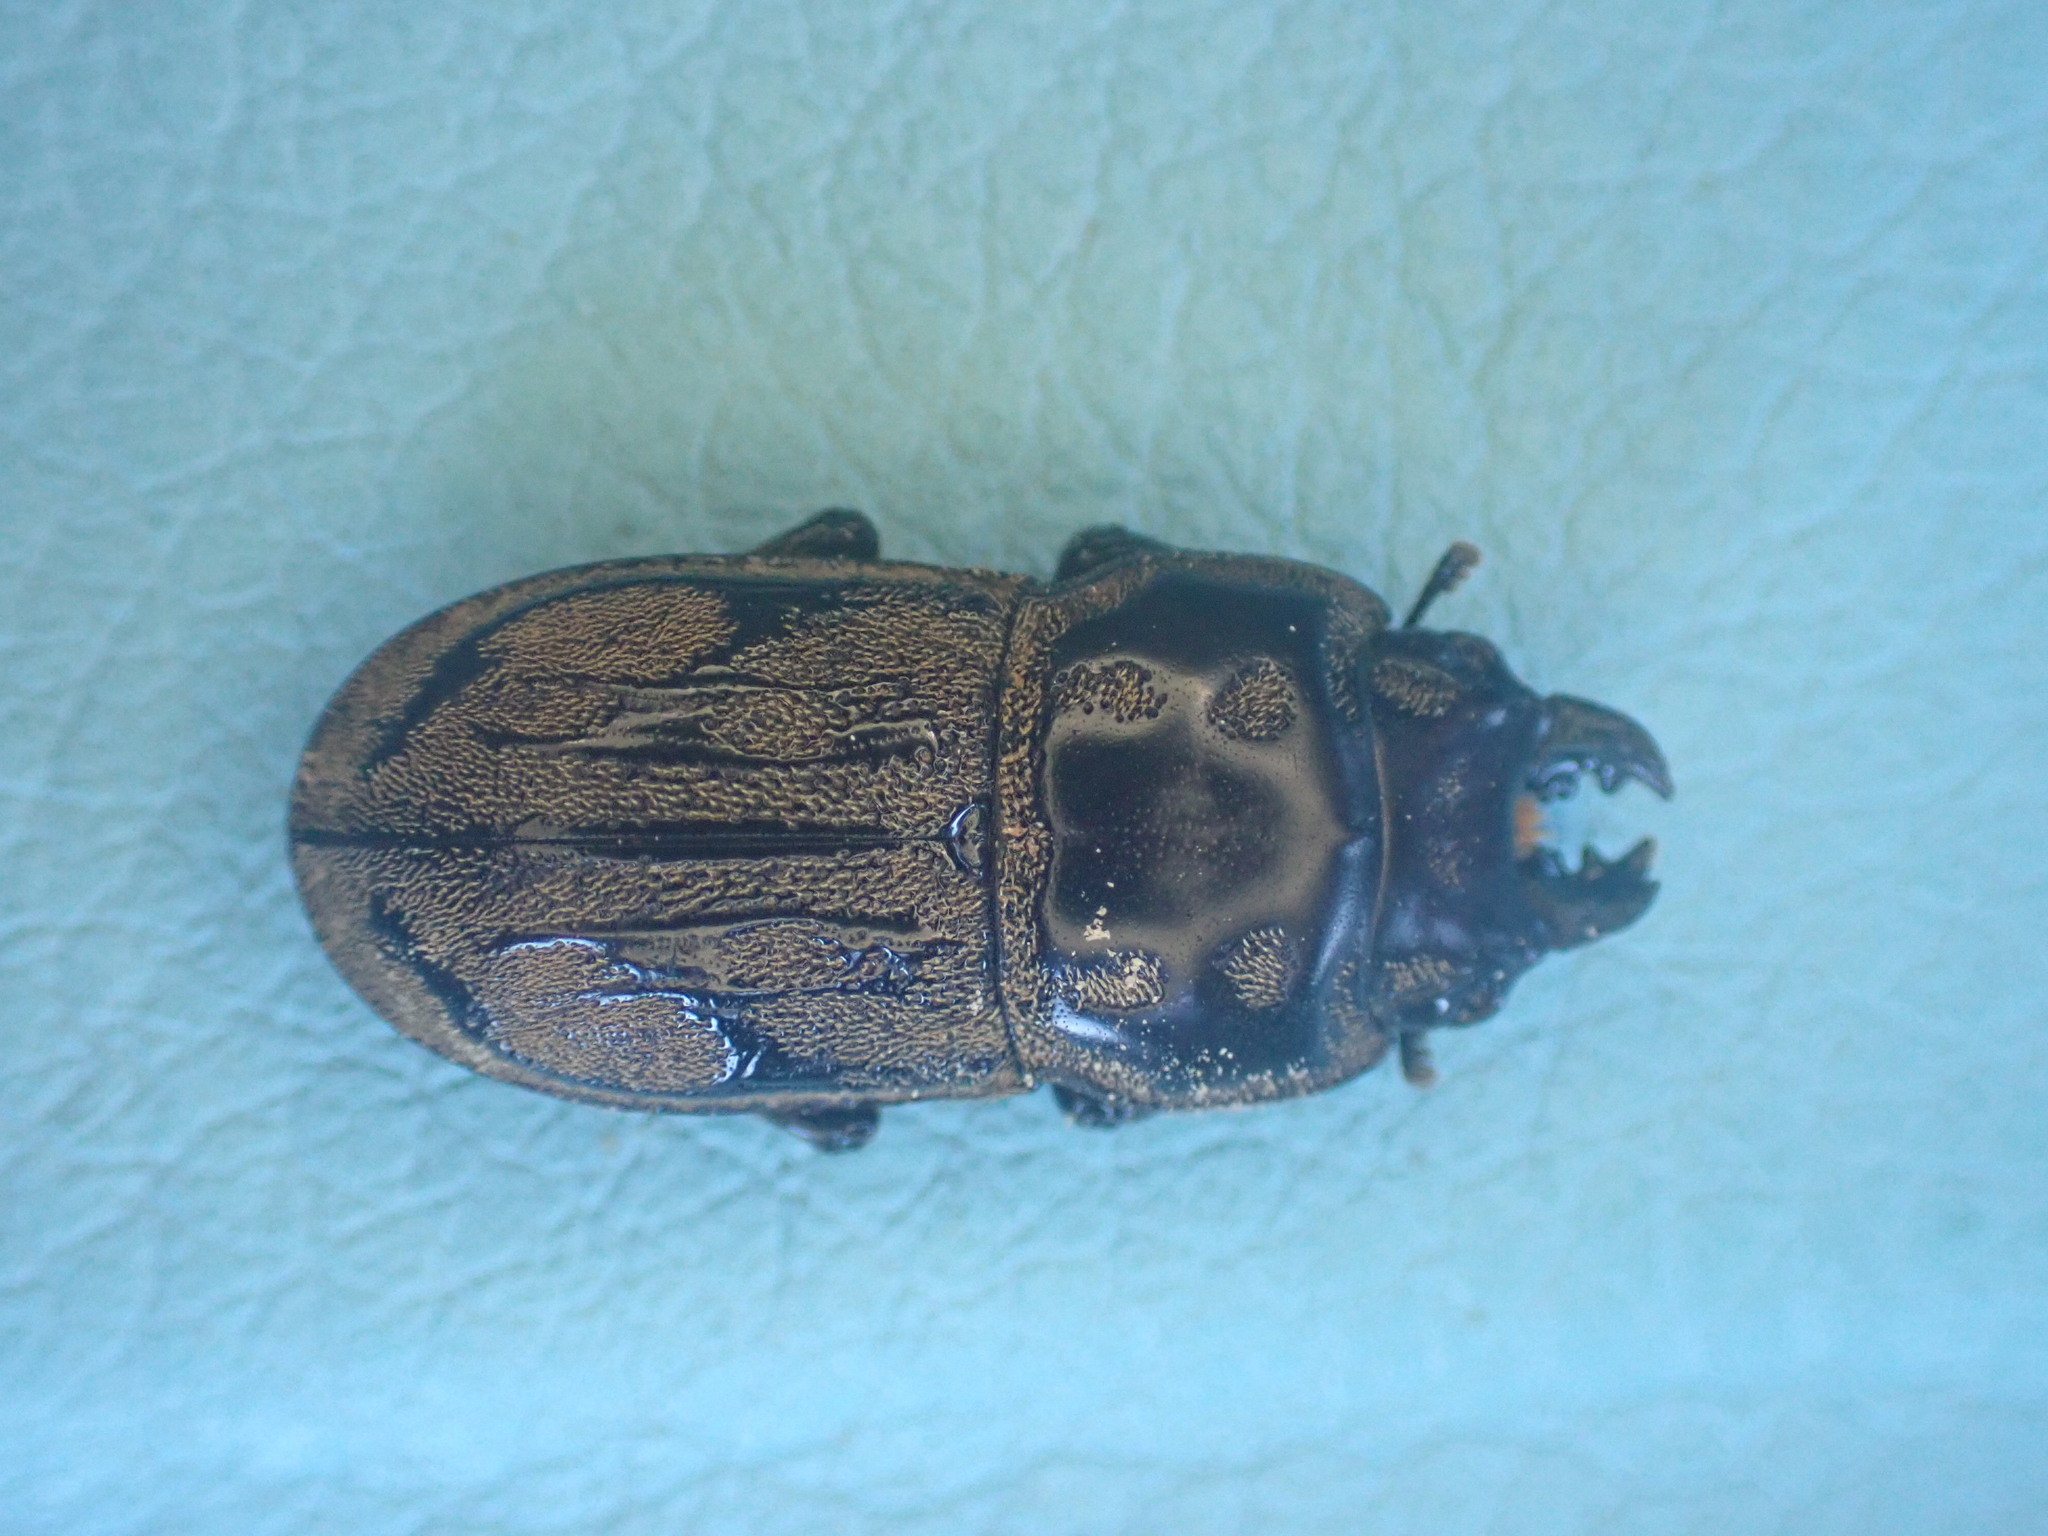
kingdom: Animalia
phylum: Arthropoda
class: Insecta
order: Coleoptera
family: Lucanidae
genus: Paralissotes
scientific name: Paralissotes reticulatus
